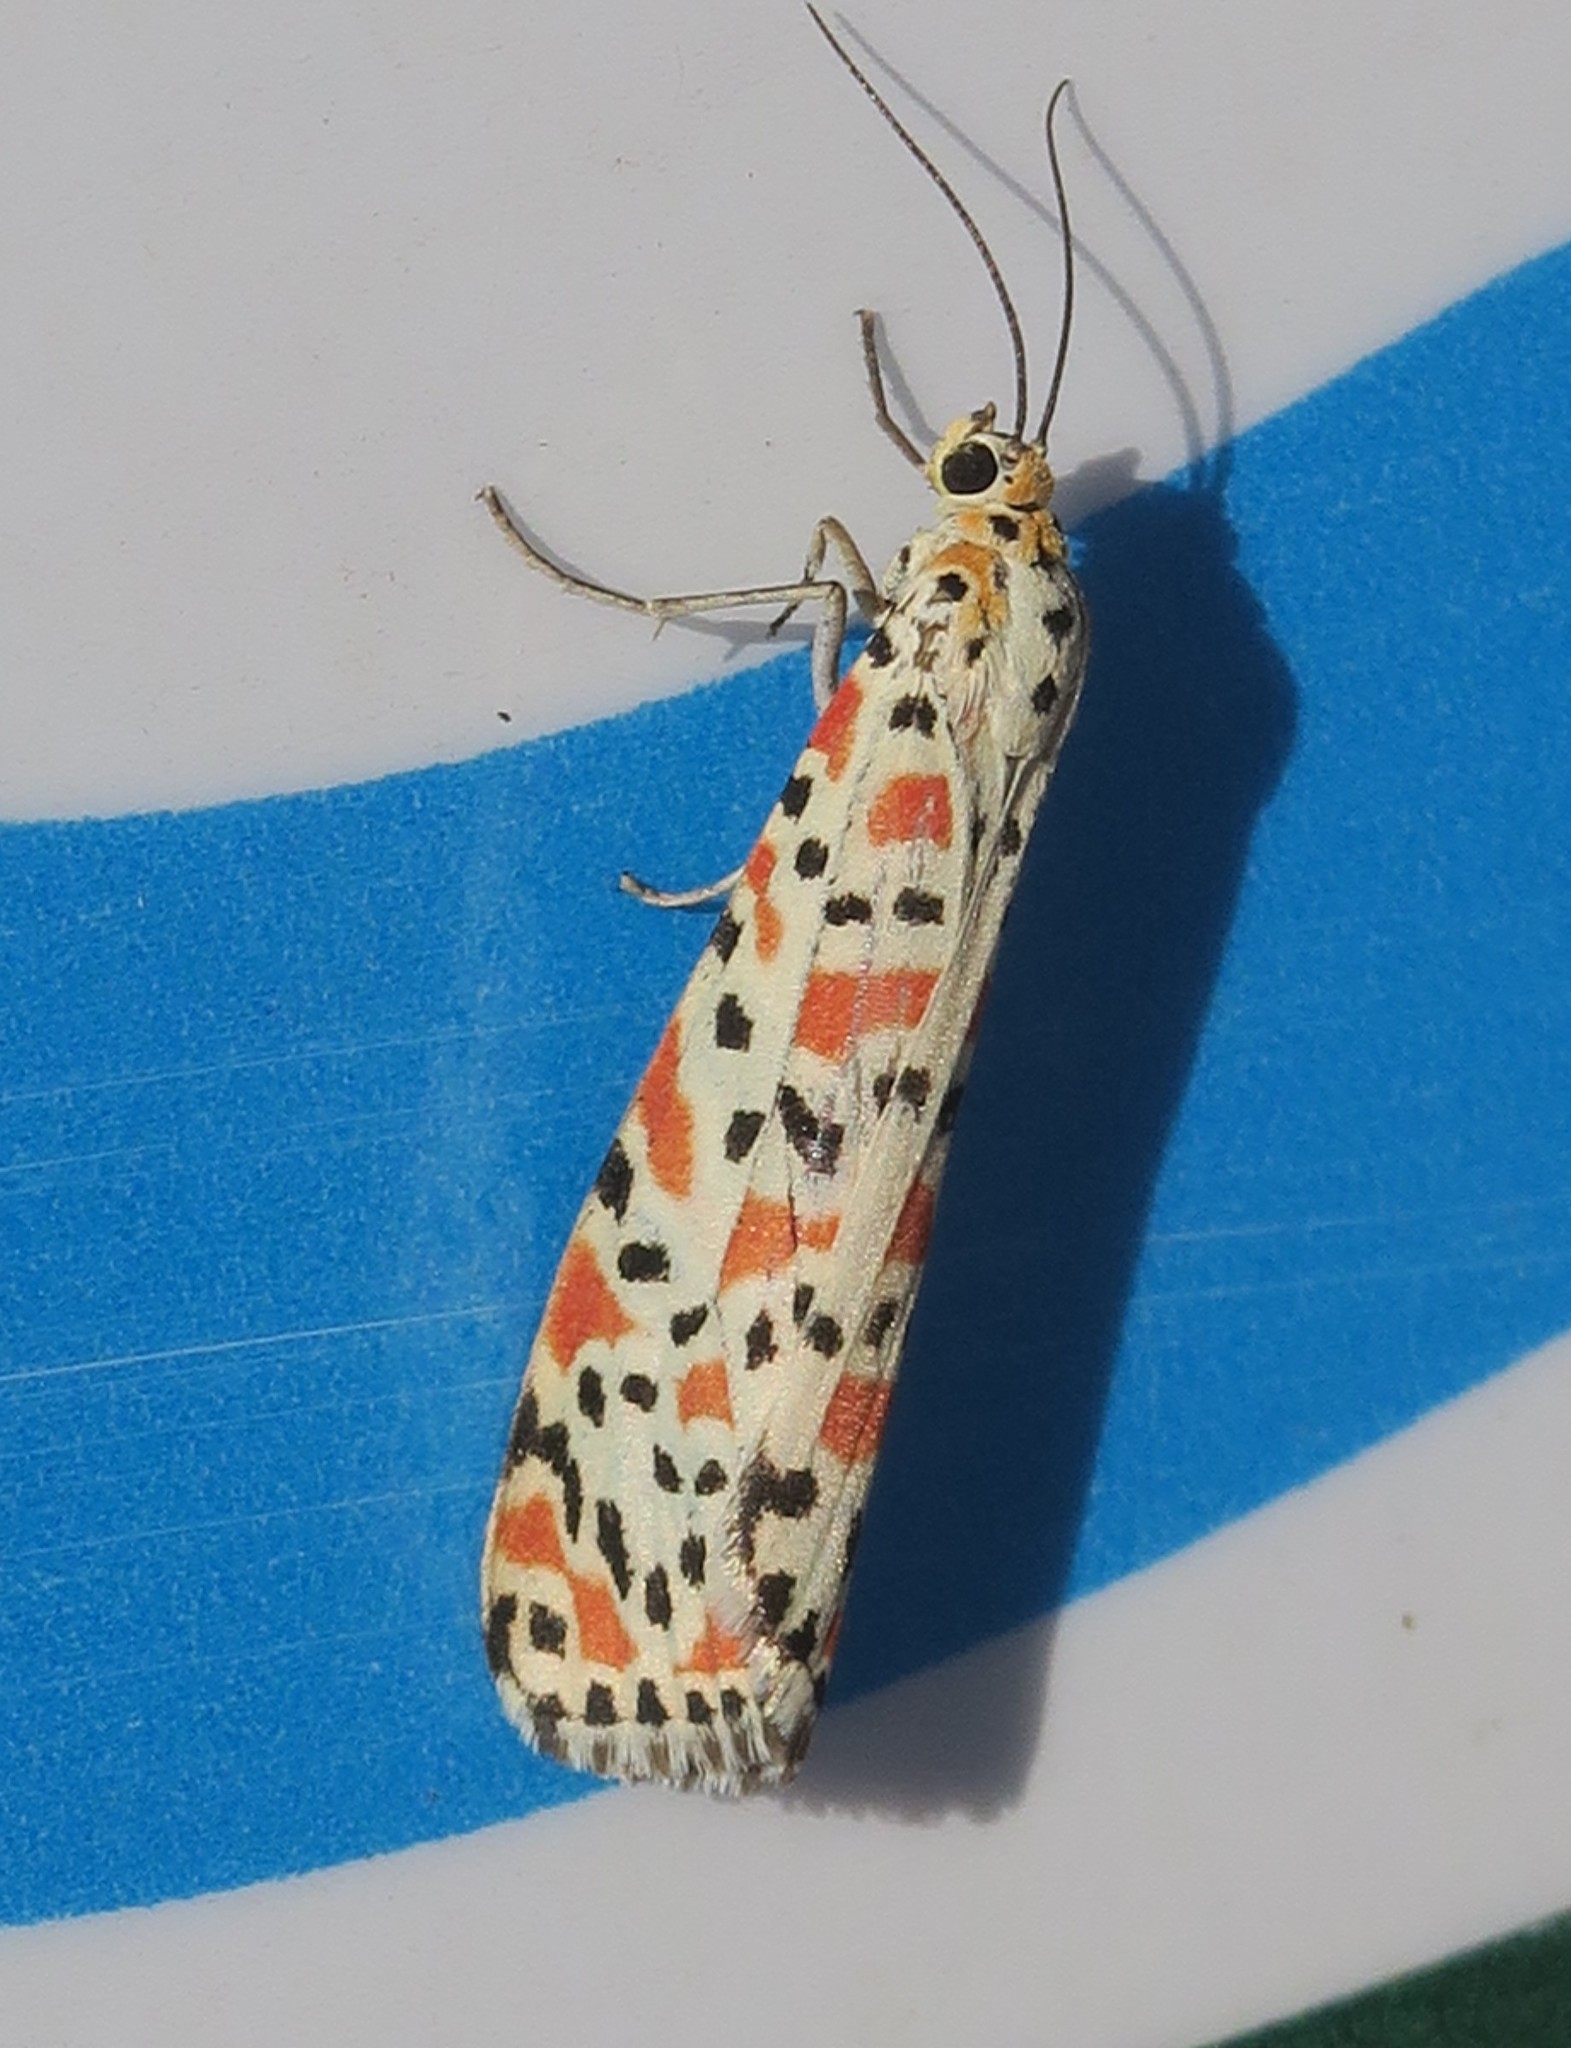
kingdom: Animalia
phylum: Arthropoda
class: Insecta
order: Lepidoptera
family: Erebidae
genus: Utetheisa
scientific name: Utetheisa pulchella
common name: Crimson speckled
